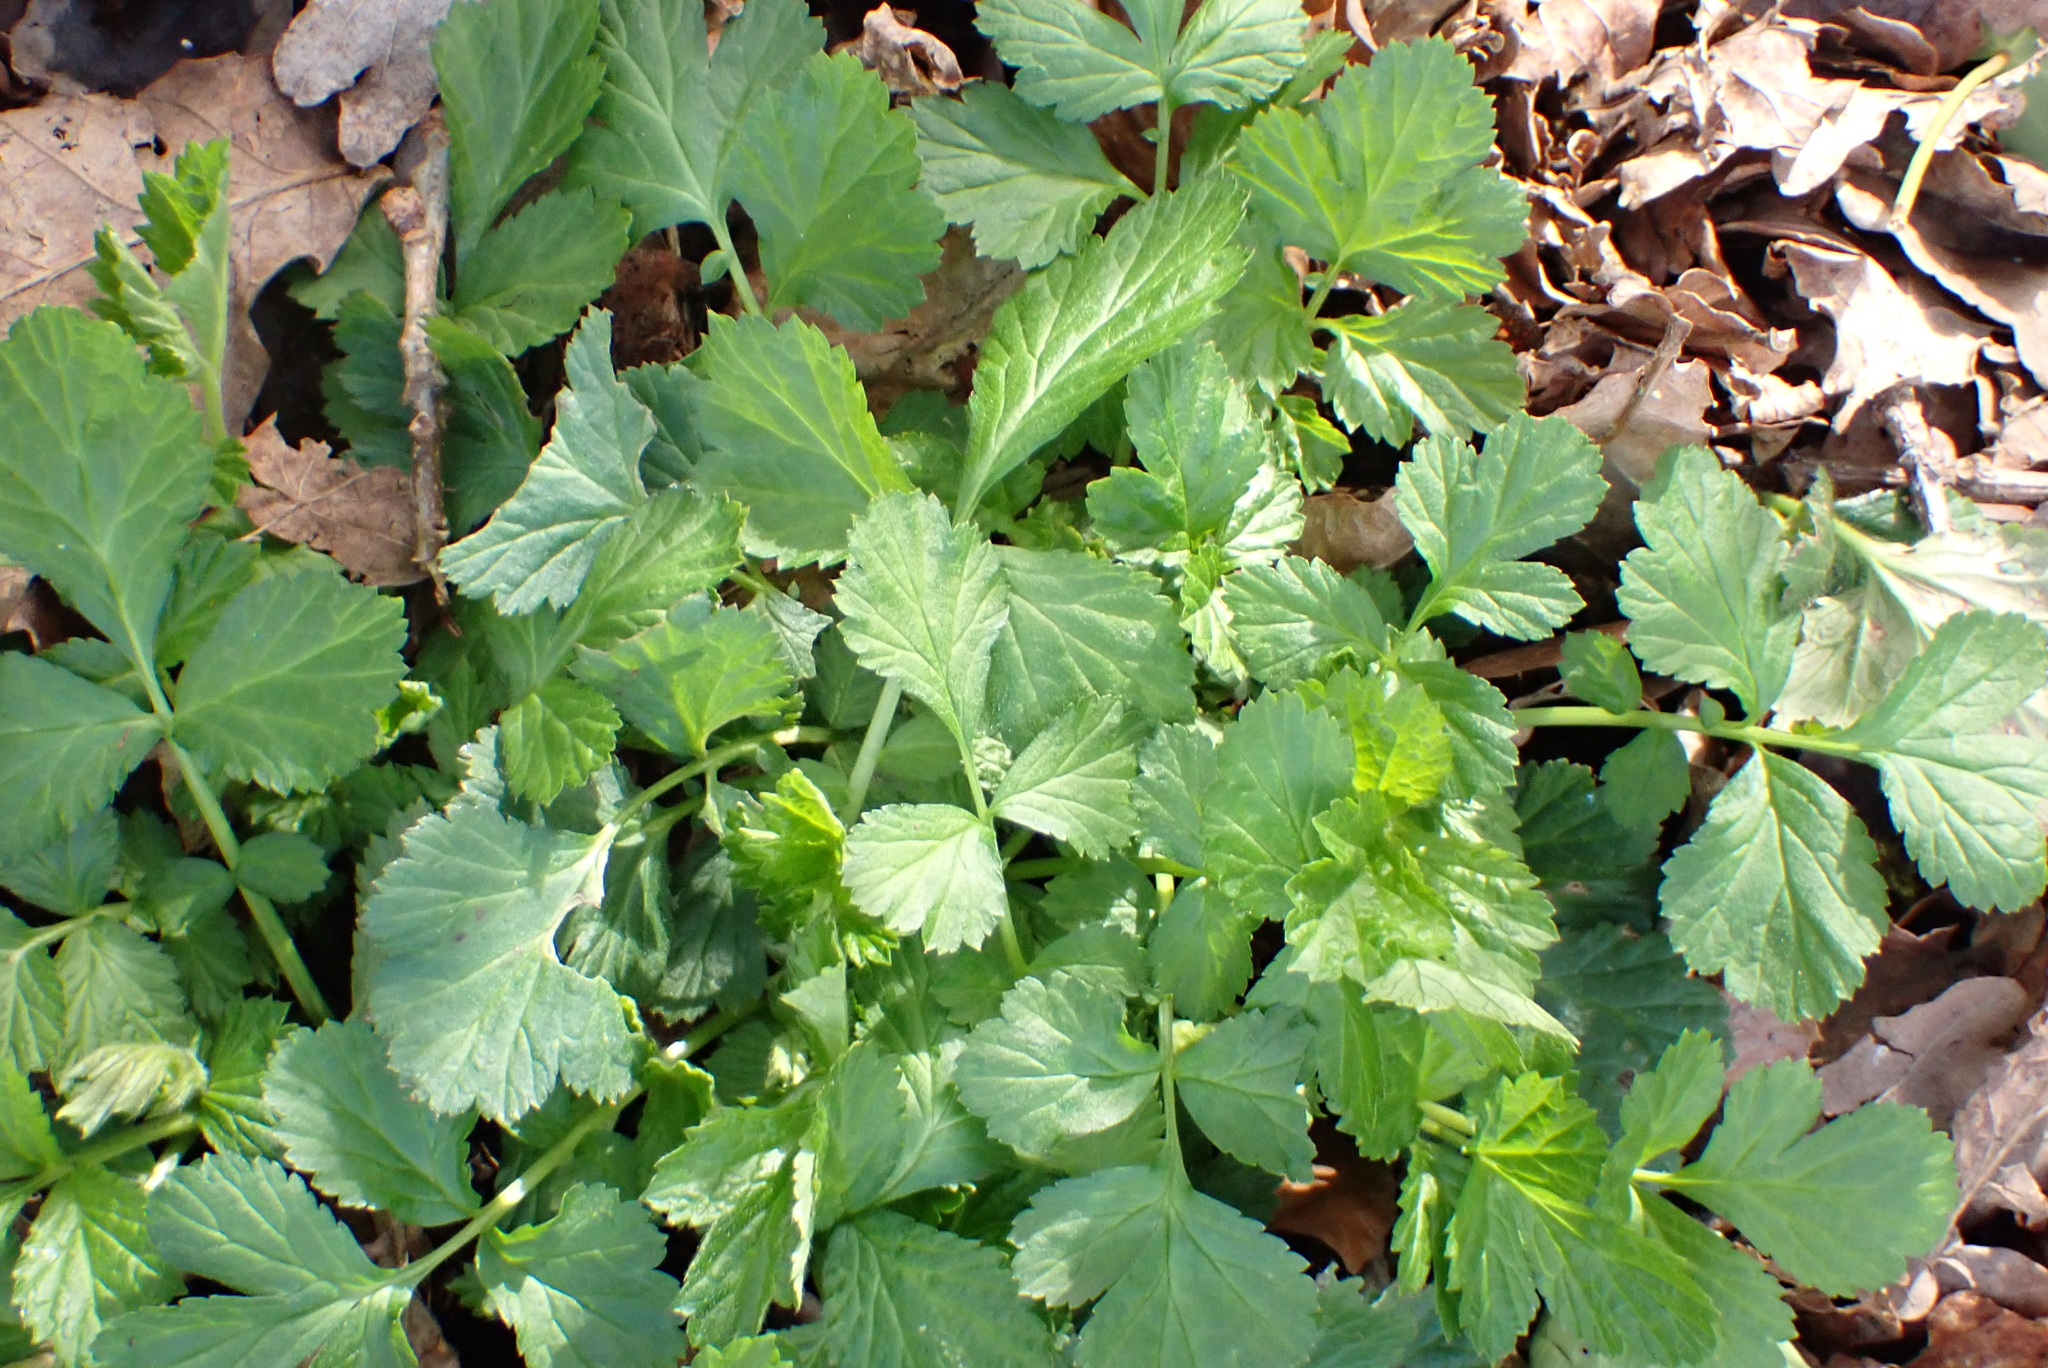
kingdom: Plantae
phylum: Tracheophyta
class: Magnoliopsida
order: Rosales
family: Rosaceae
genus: Geum
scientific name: Geum urbanum
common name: Wood avens
